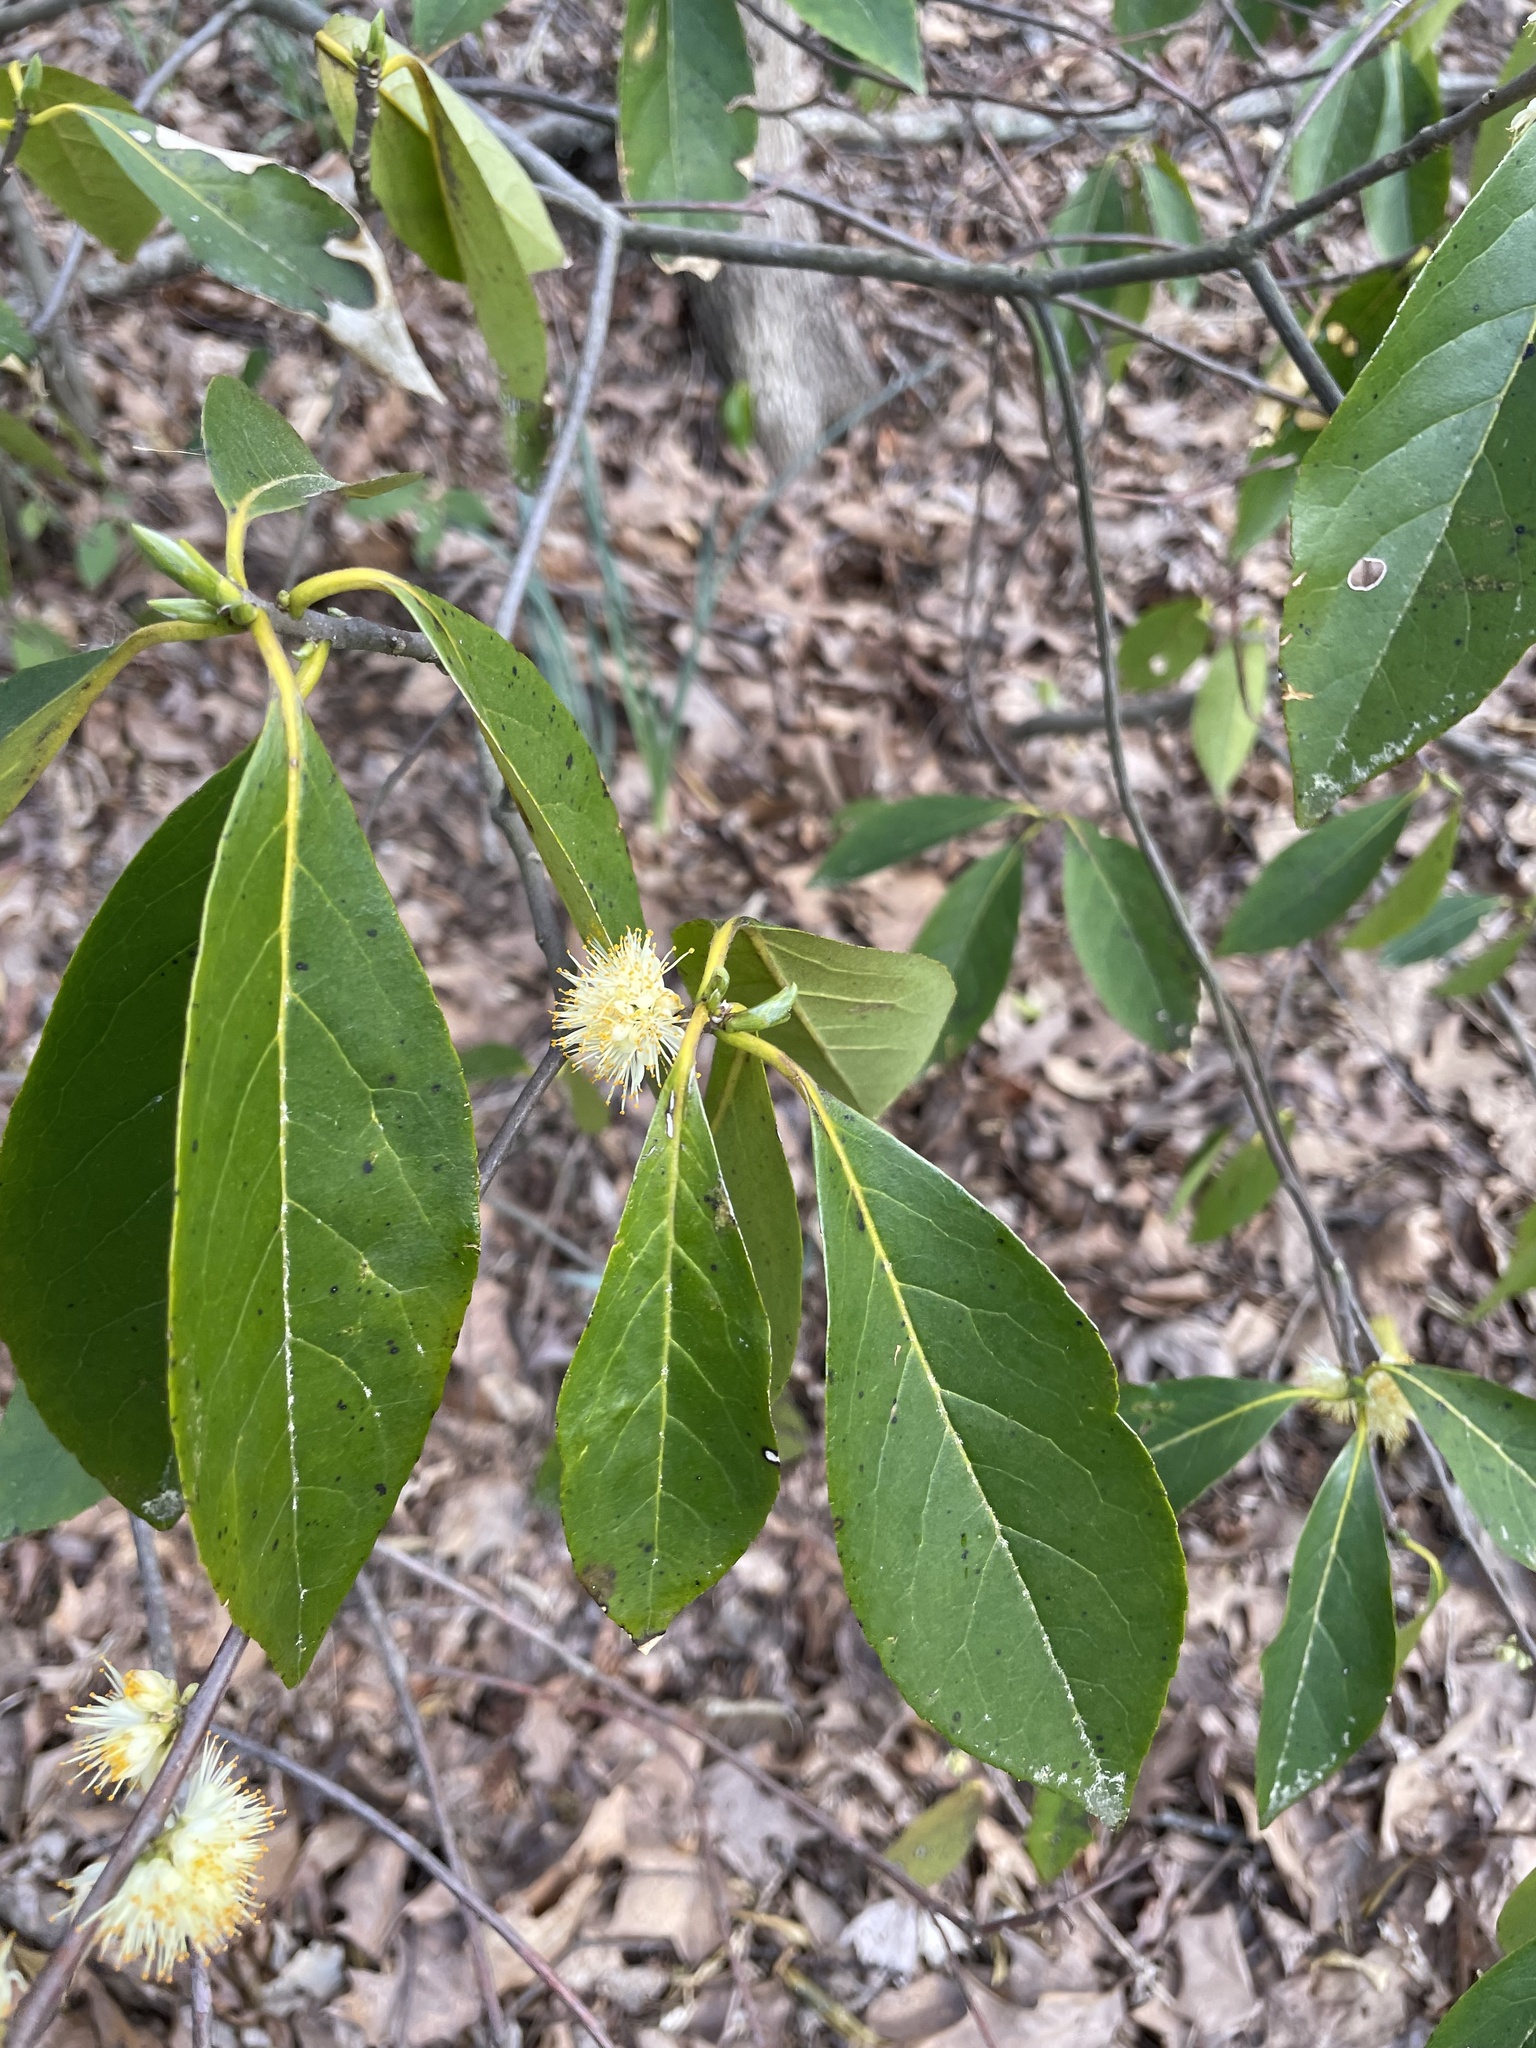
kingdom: Plantae
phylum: Tracheophyta
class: Magnoliopsida
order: Ericales
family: Symplocaceae
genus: Symplocos
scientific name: Symplocos tinctoria
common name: Horse-sugar
